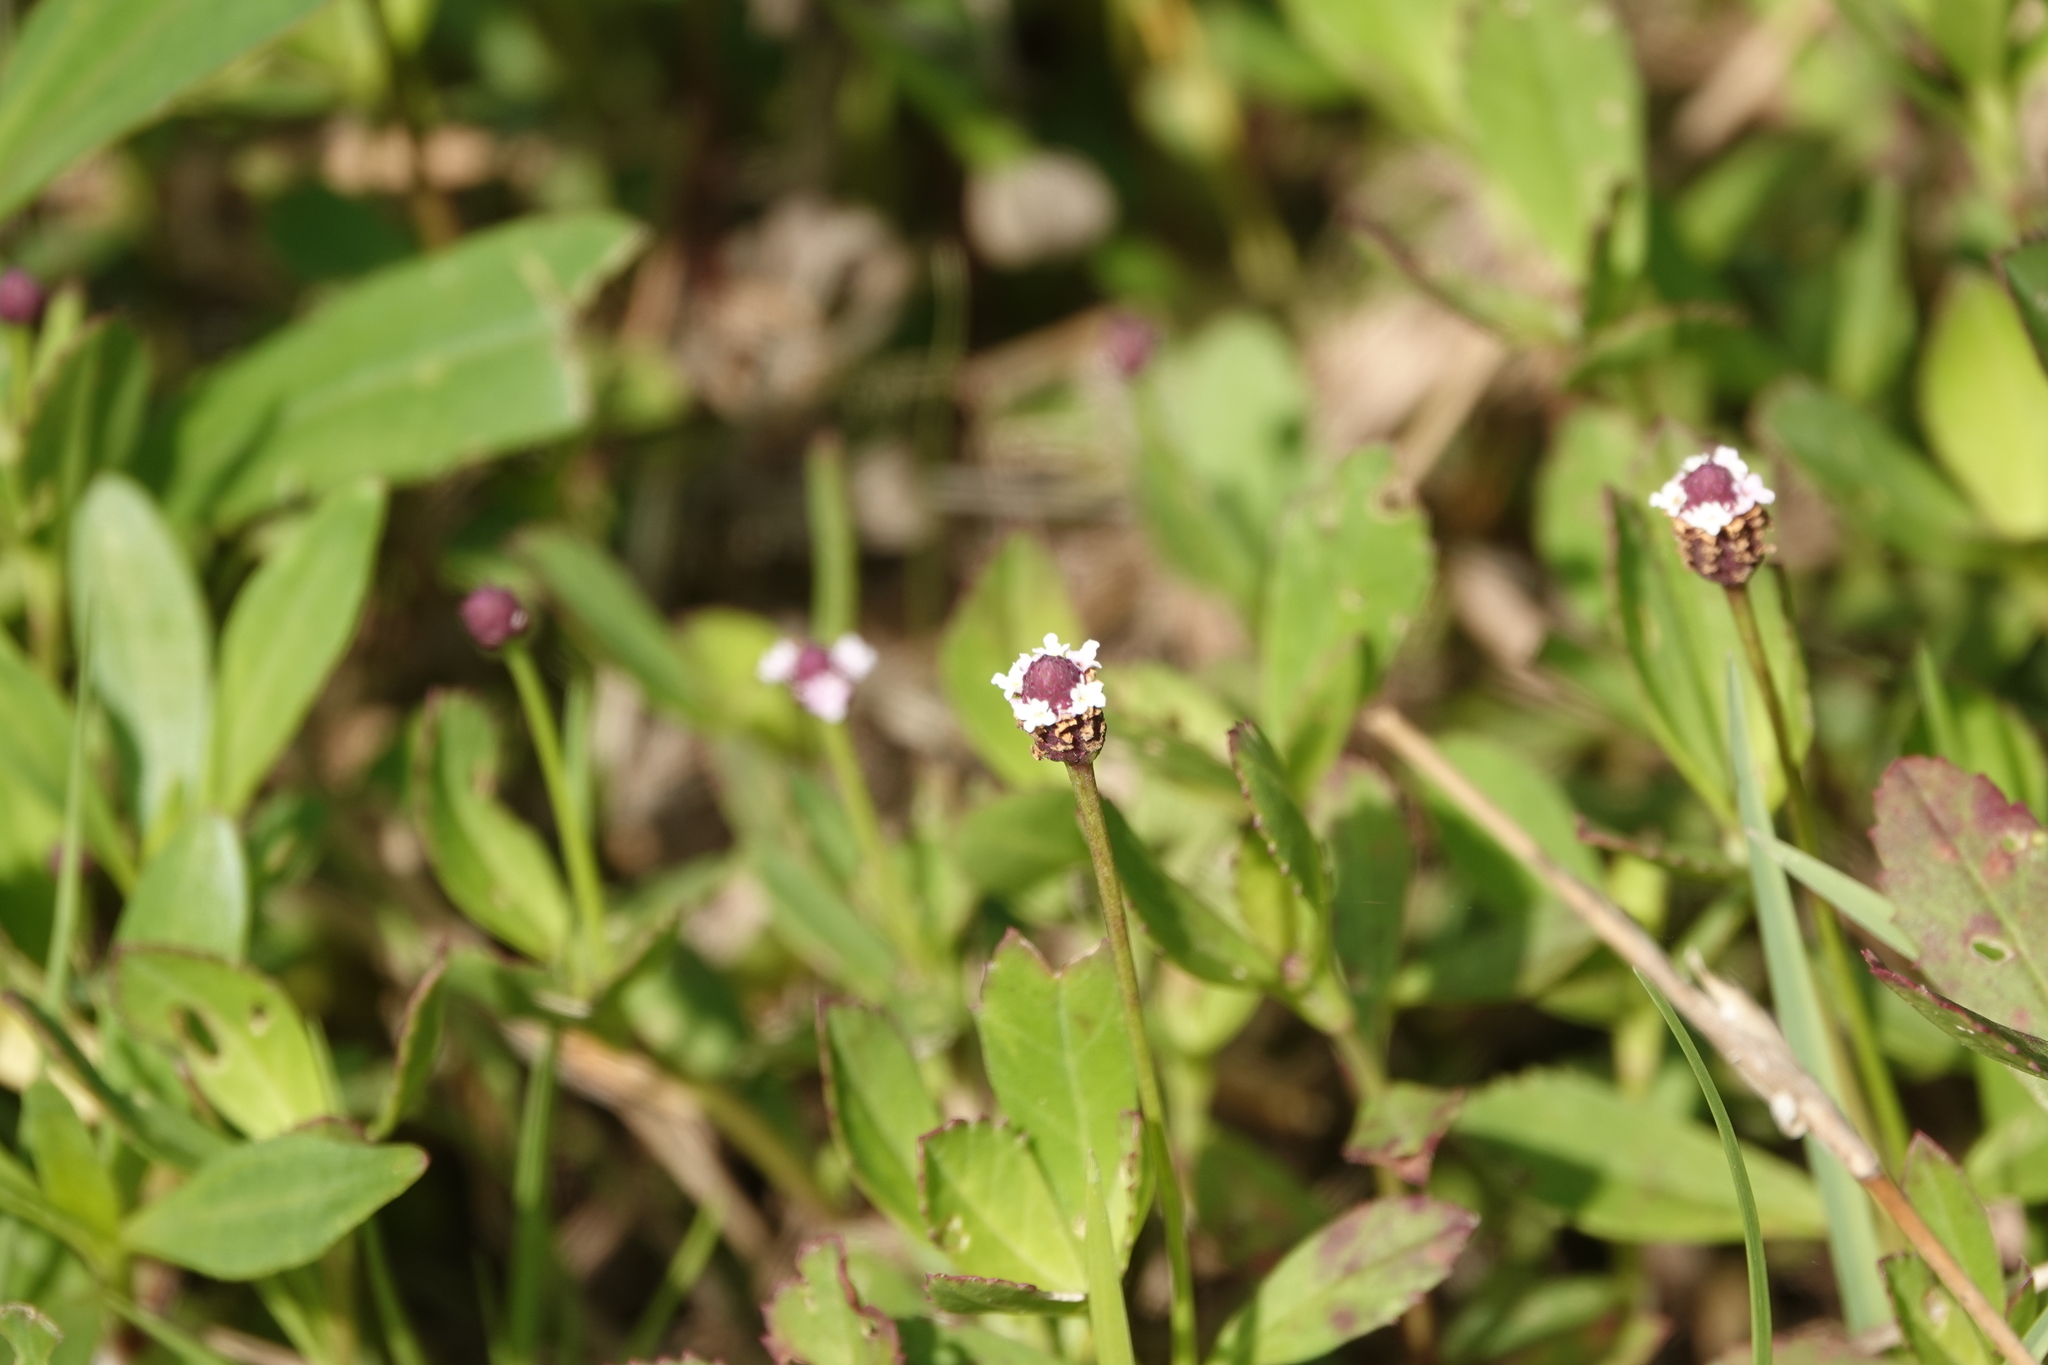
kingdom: Plantae
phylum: Tracheophyta
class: Magnoliopsida
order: Lamiales
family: Verbenaceae
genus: Phyla
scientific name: Phyla nodiflora
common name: Frogfruit
